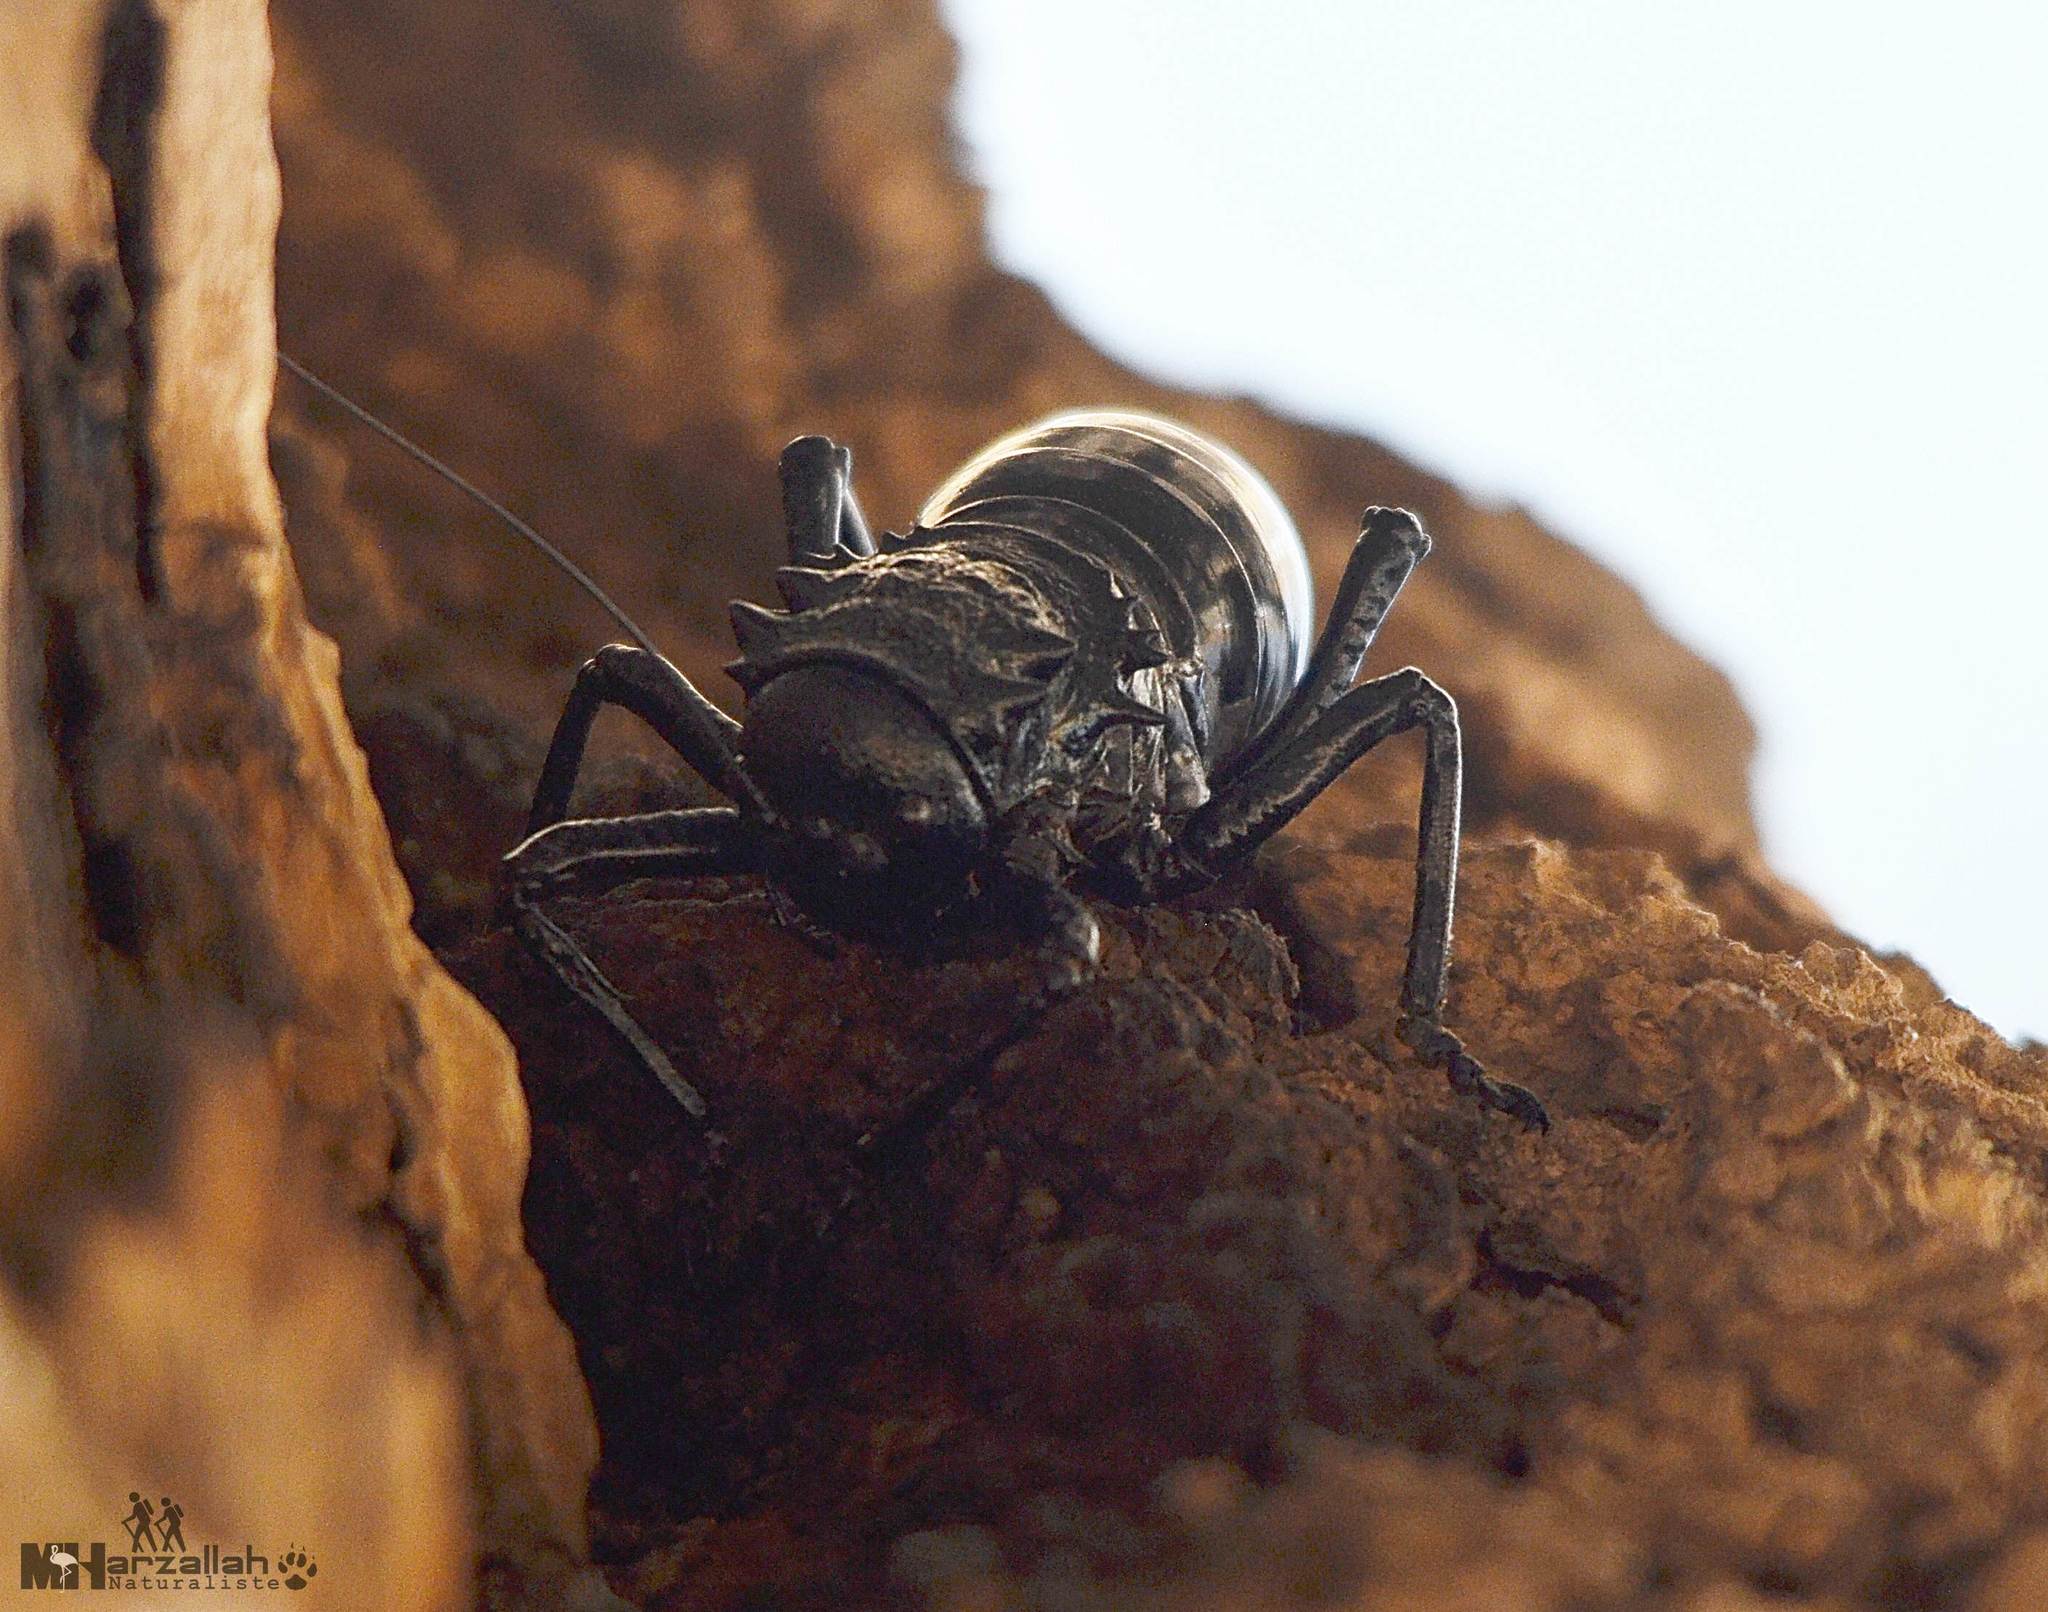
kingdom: Animalia
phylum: Arthropoda
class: Insecta
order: Orthoptera
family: Tettigoniidae
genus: Eugaster
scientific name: Eugaster guyoni
